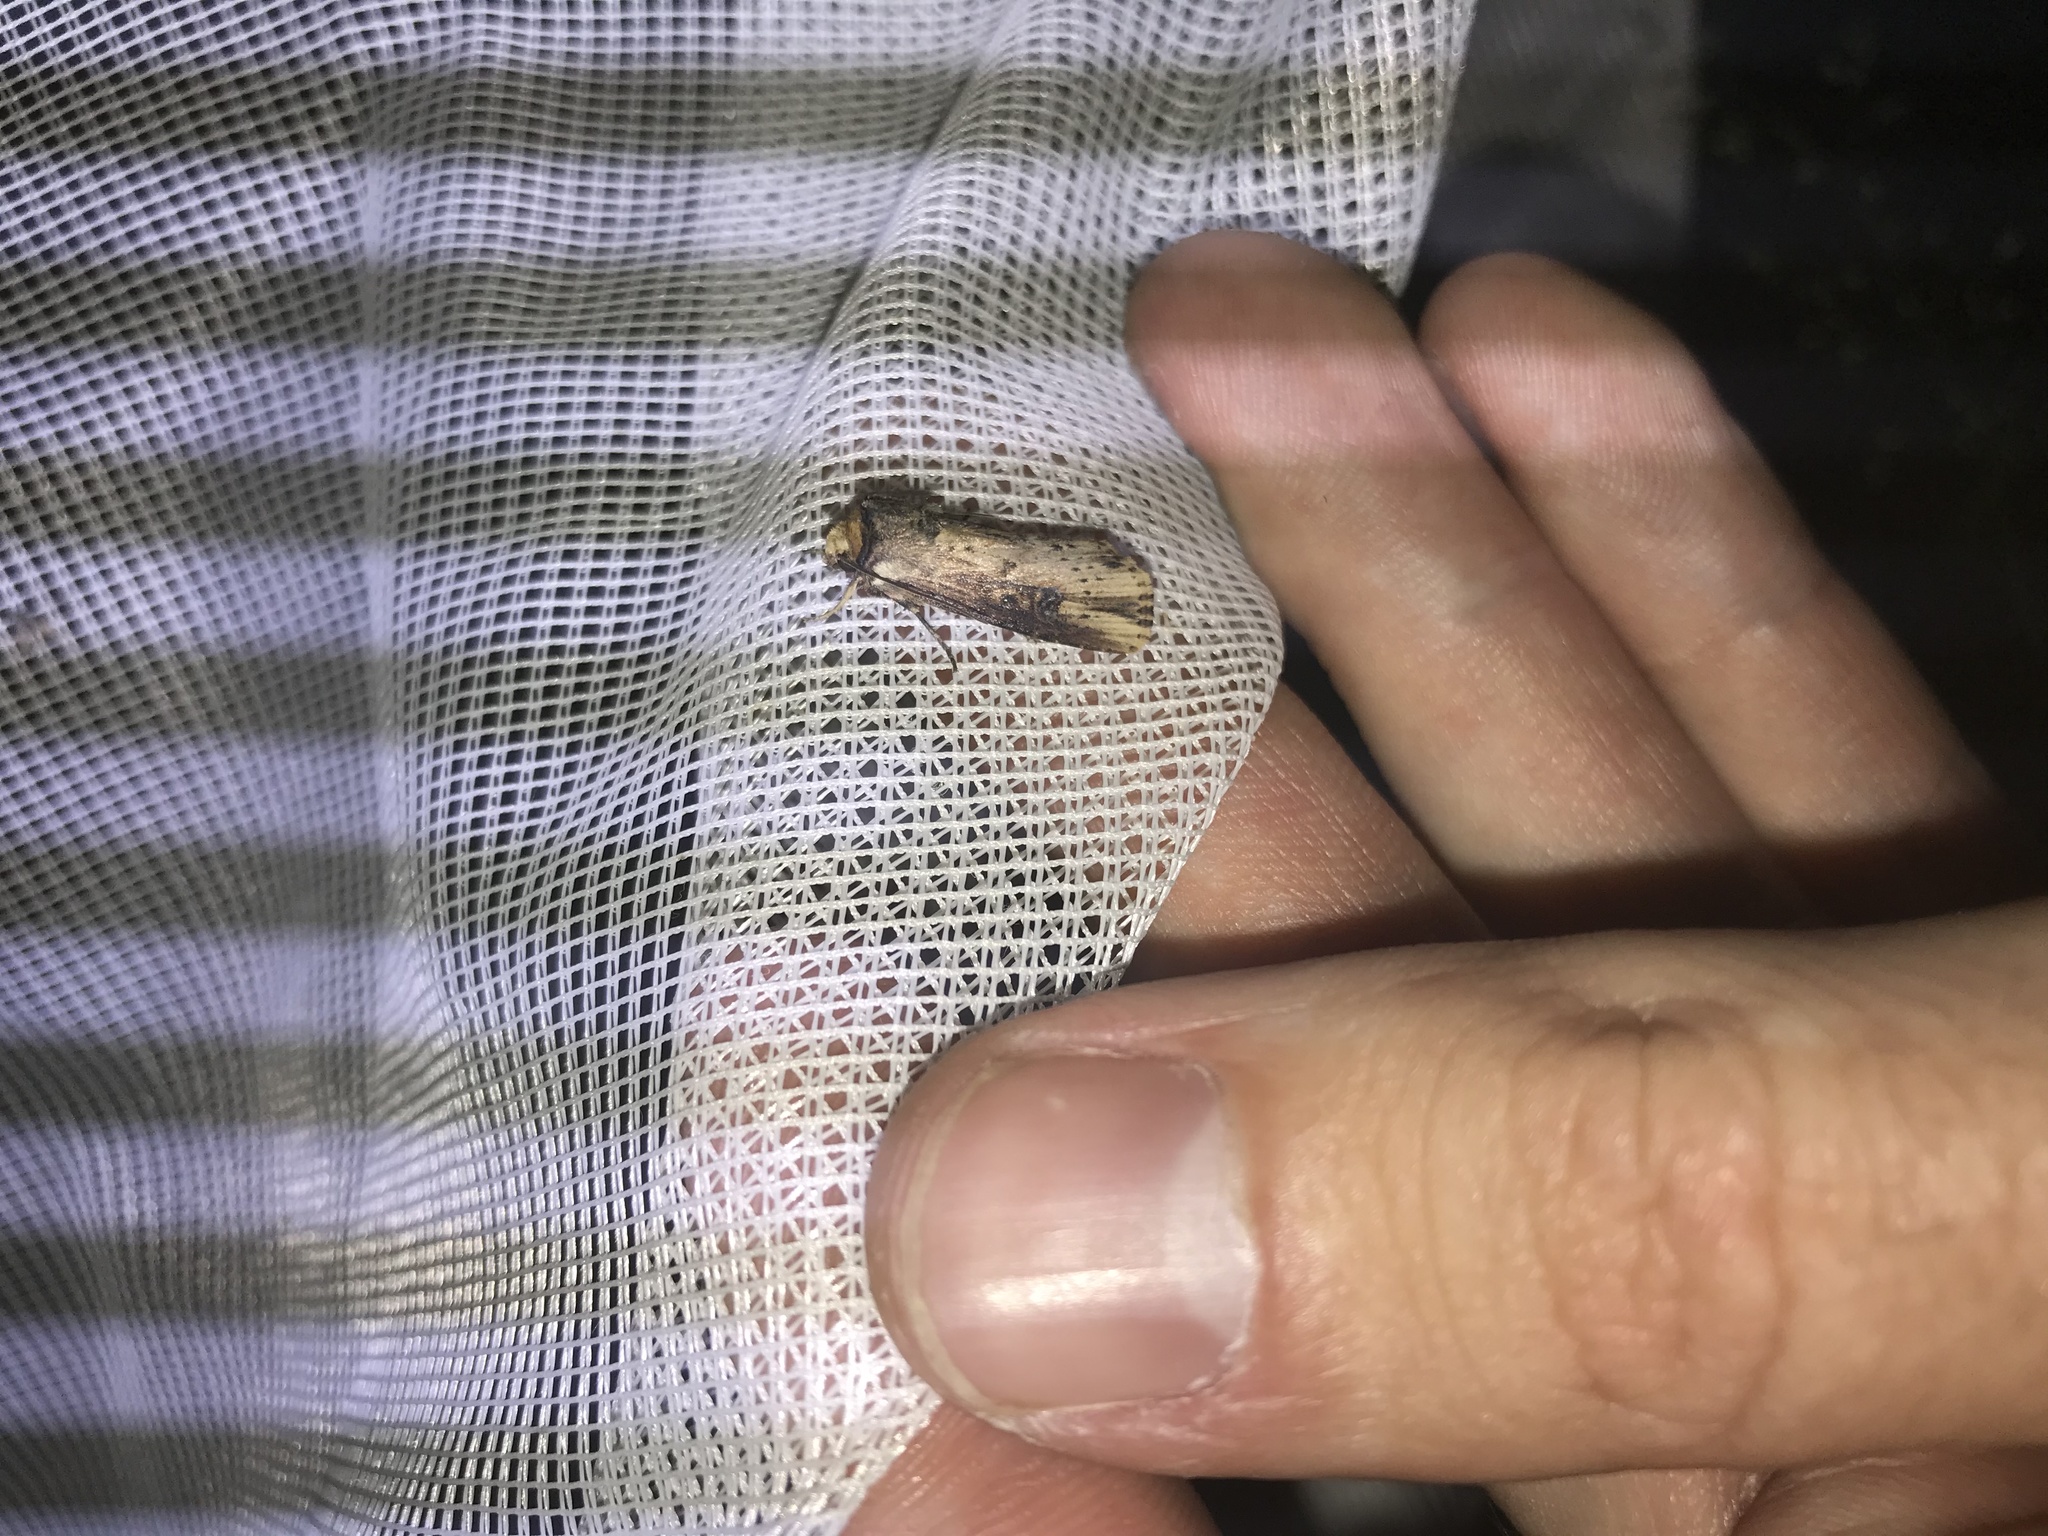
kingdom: Animalia
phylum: Arthropoda
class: Insecta
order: Lepidoptera
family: Noctuidae
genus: Axylia
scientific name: Axylia putris
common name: Flame
